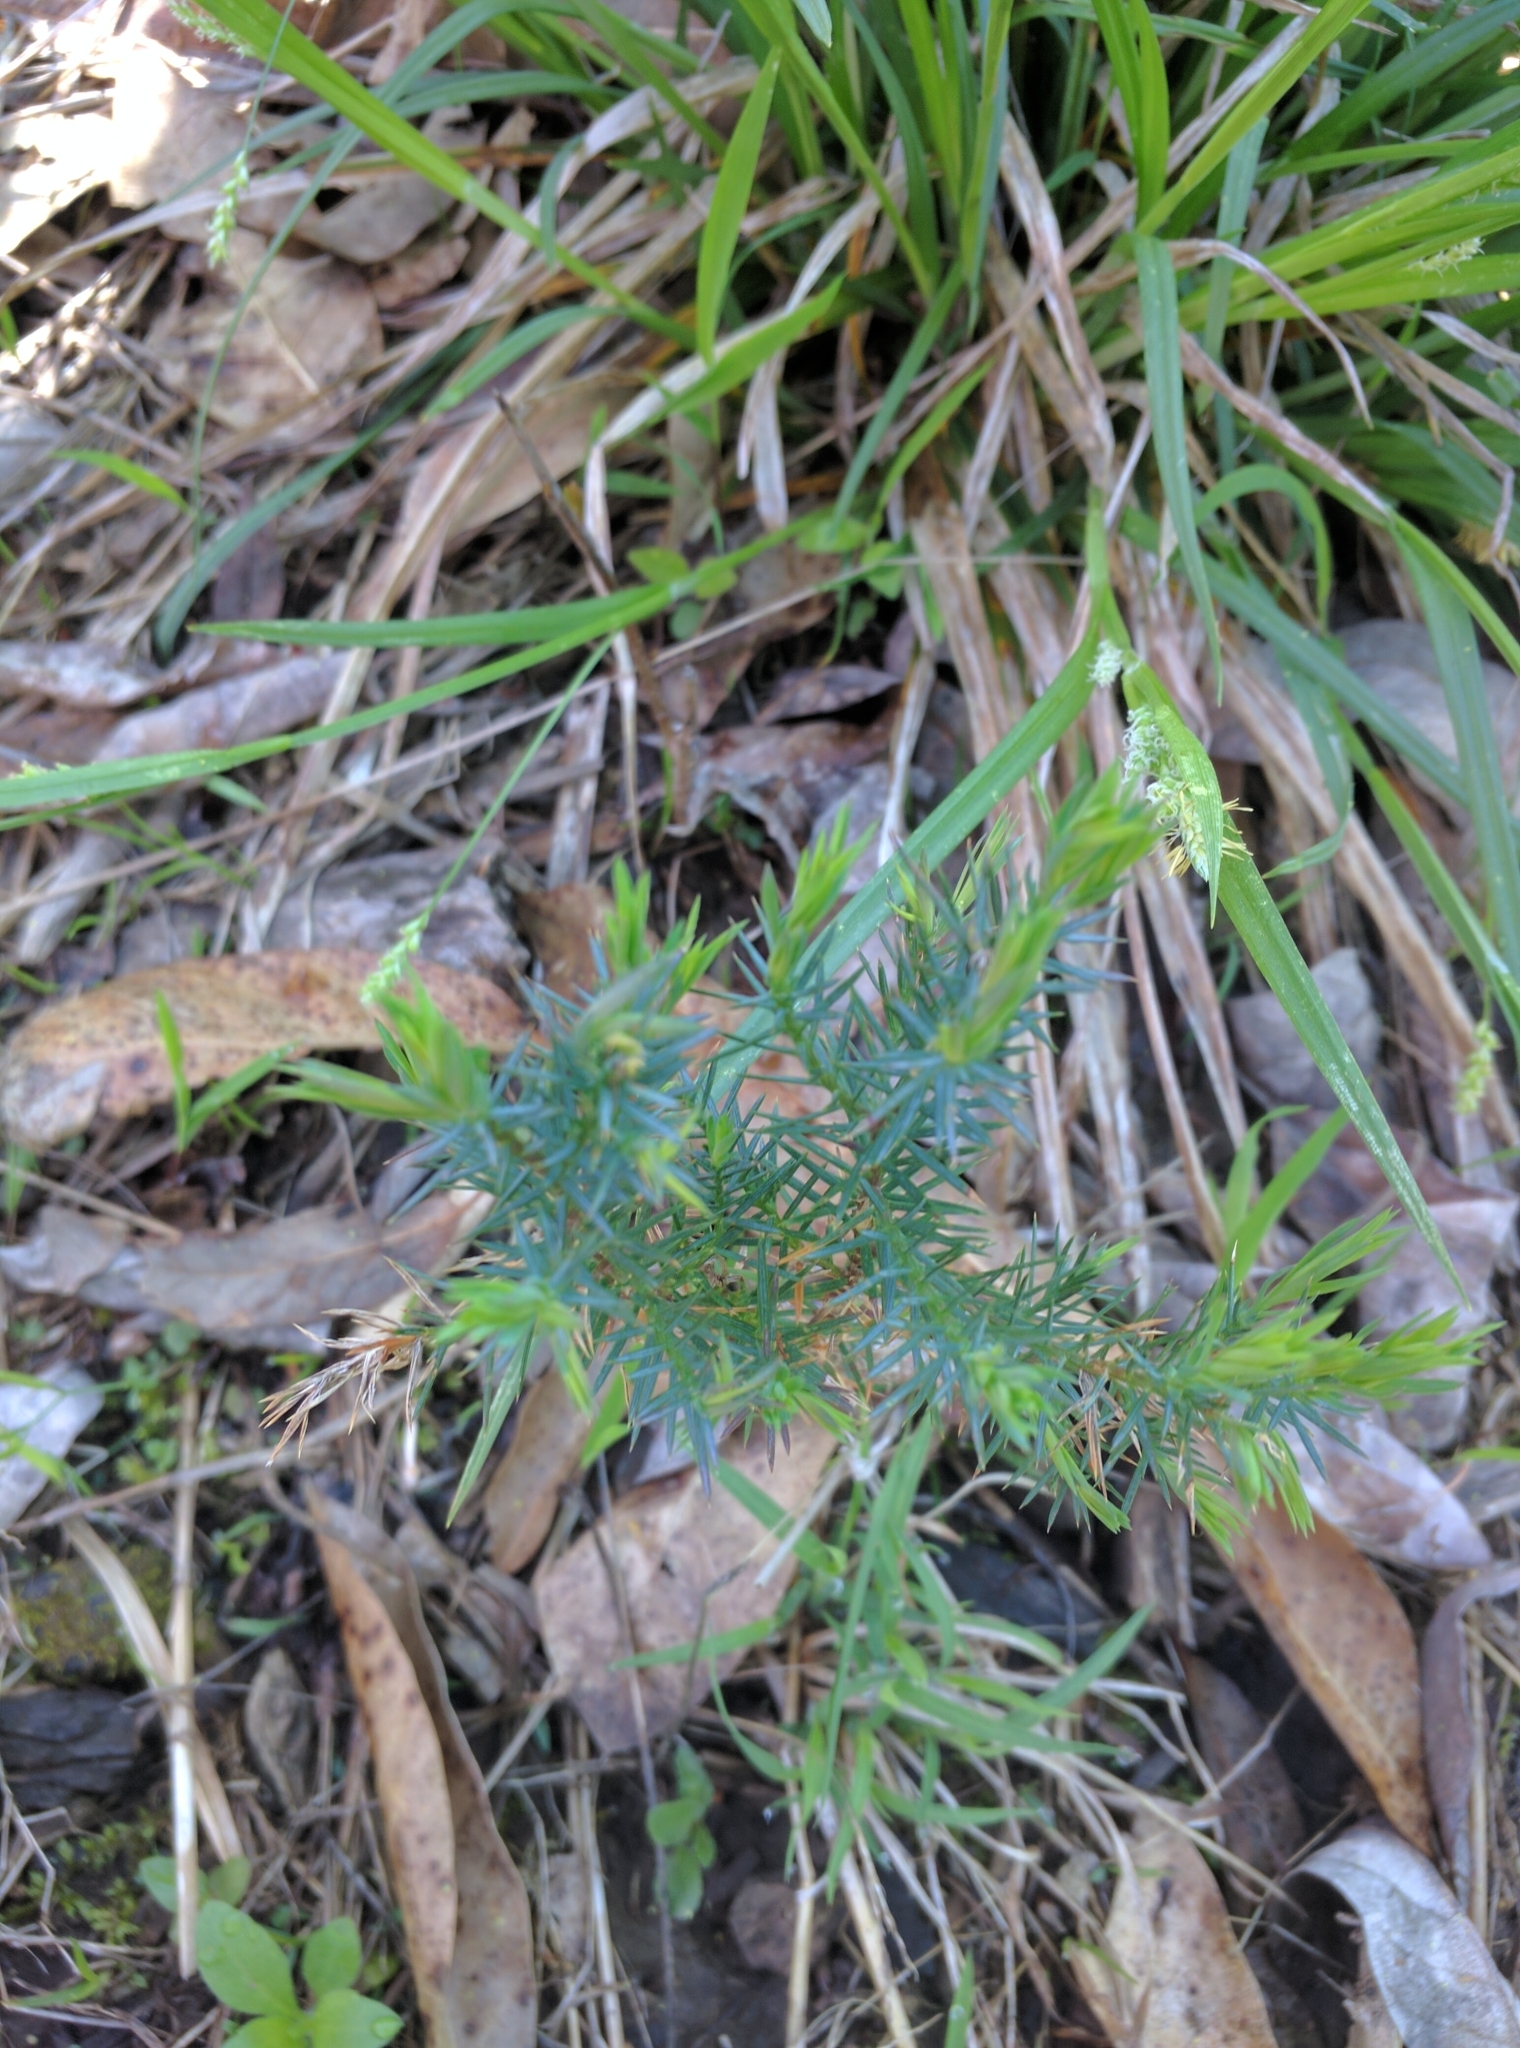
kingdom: Plantae
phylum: Tracheophyta
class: Pinopsida
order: Pinales
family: Cupressaceae
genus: Juniperus
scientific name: Juniperus virginiana
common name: Red juniper
